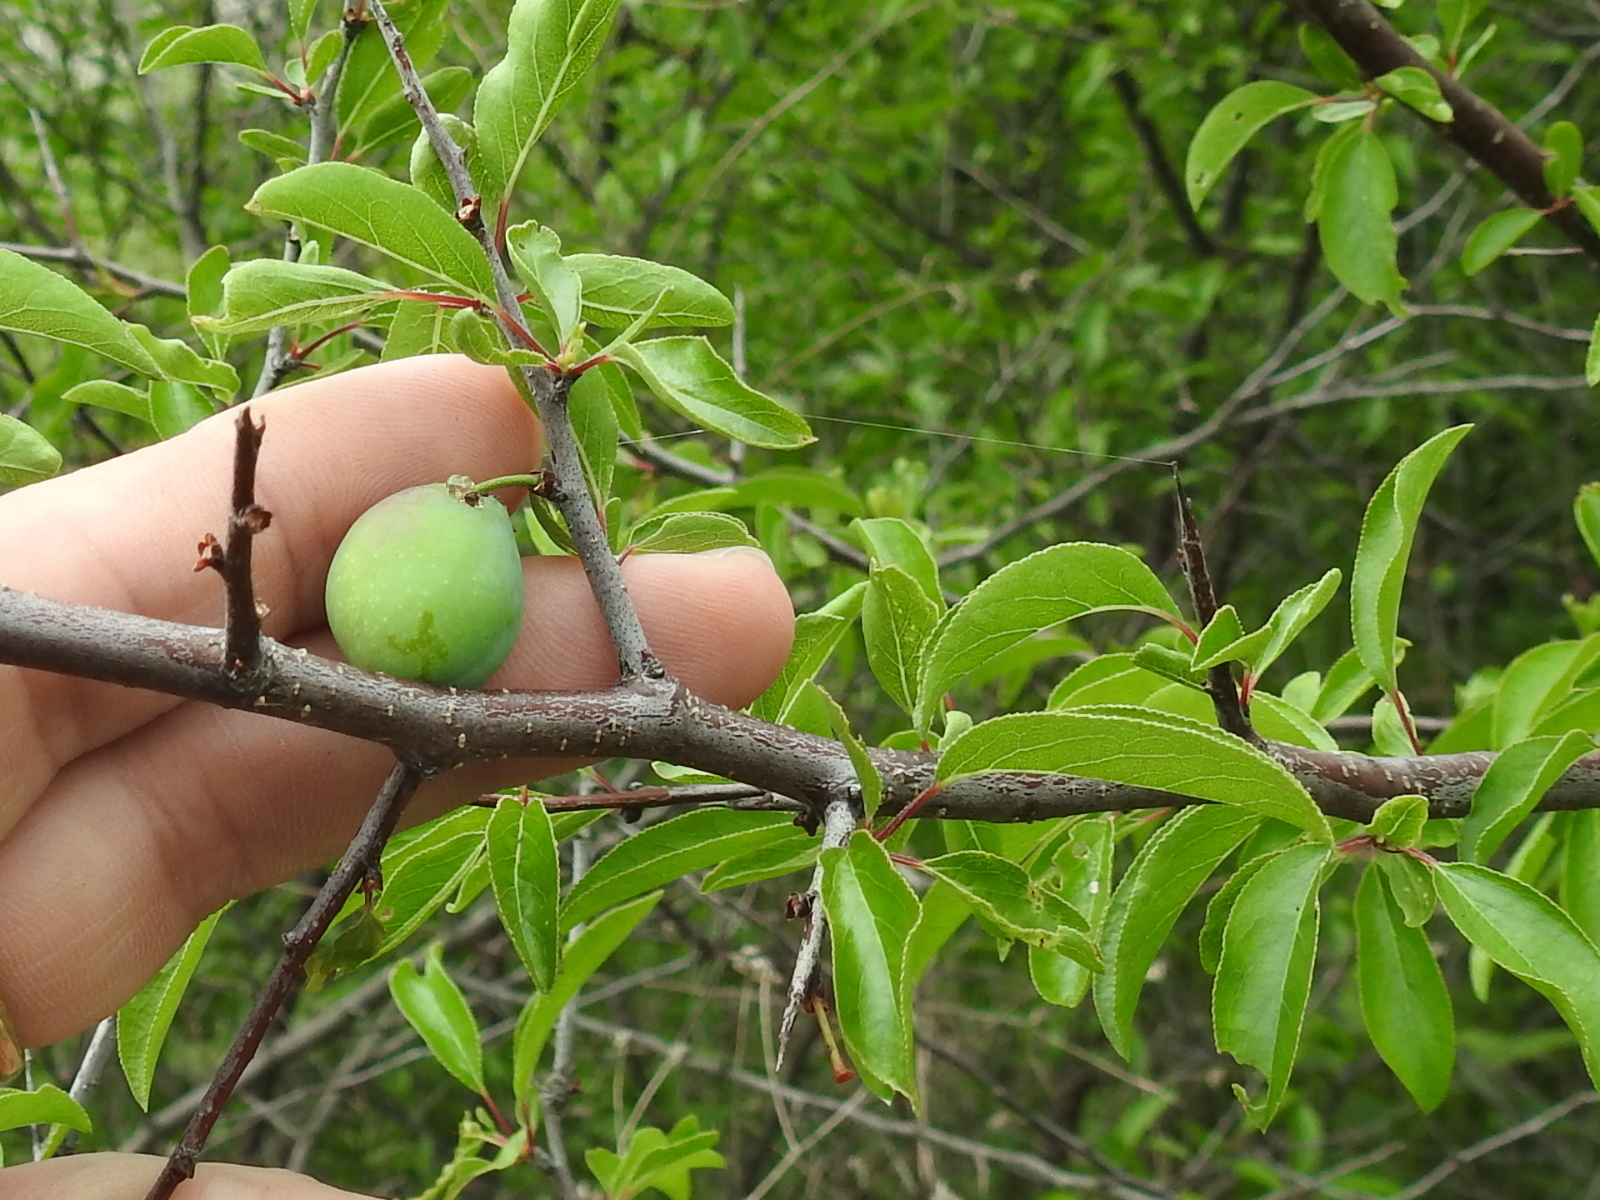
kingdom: Plantae
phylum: Tracheophyta
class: Magnoliopsida
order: Rosales
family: Rosaceae
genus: Prunus
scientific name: Prunus angustifolia
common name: Cherokee plum
